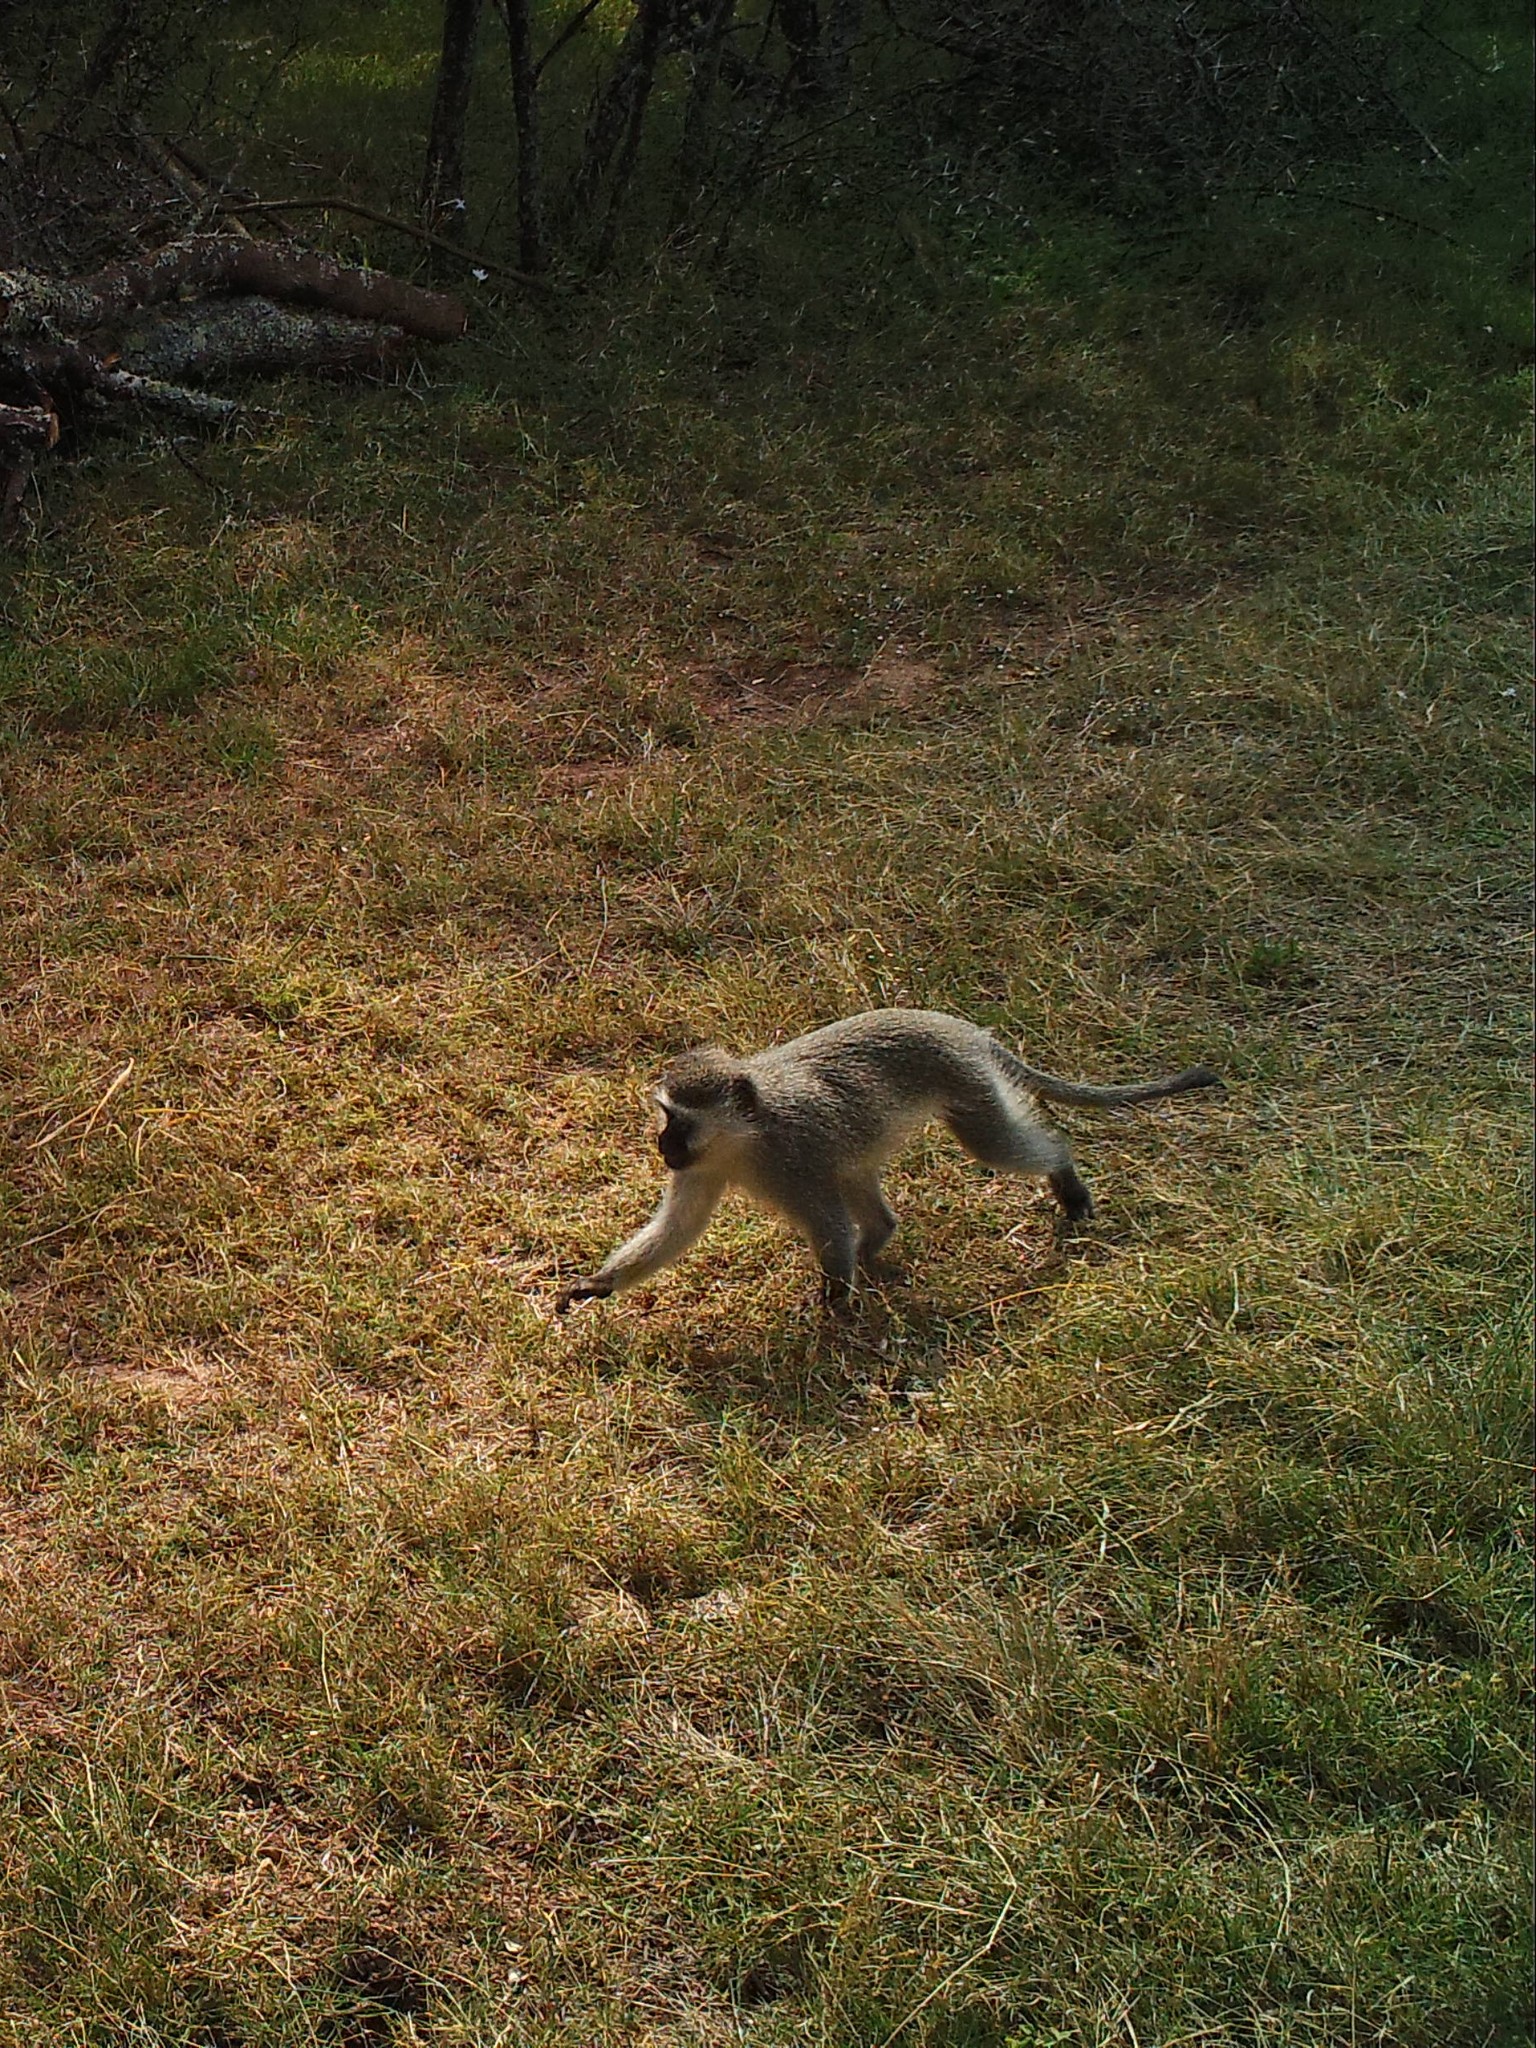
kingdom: Animalia
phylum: Chordata
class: Mammalia
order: Primates
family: Cercopithecidae
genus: Chlorocebus
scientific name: Chlorocebus pygerythrus
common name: Vervet monkey
